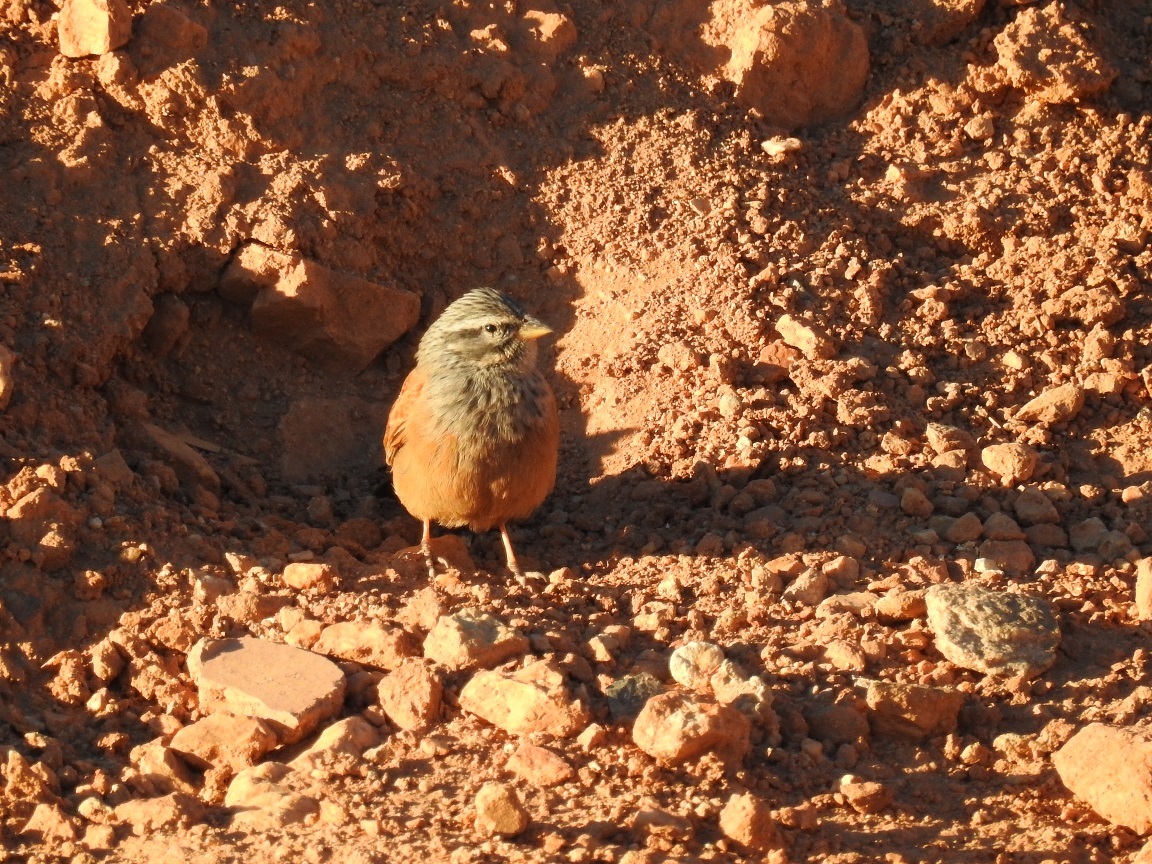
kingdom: Animalia
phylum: Chordata
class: Aves
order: Passeriformes
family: Emberizidae
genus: Emberiza
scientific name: Emberiza sahari
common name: House bunting
